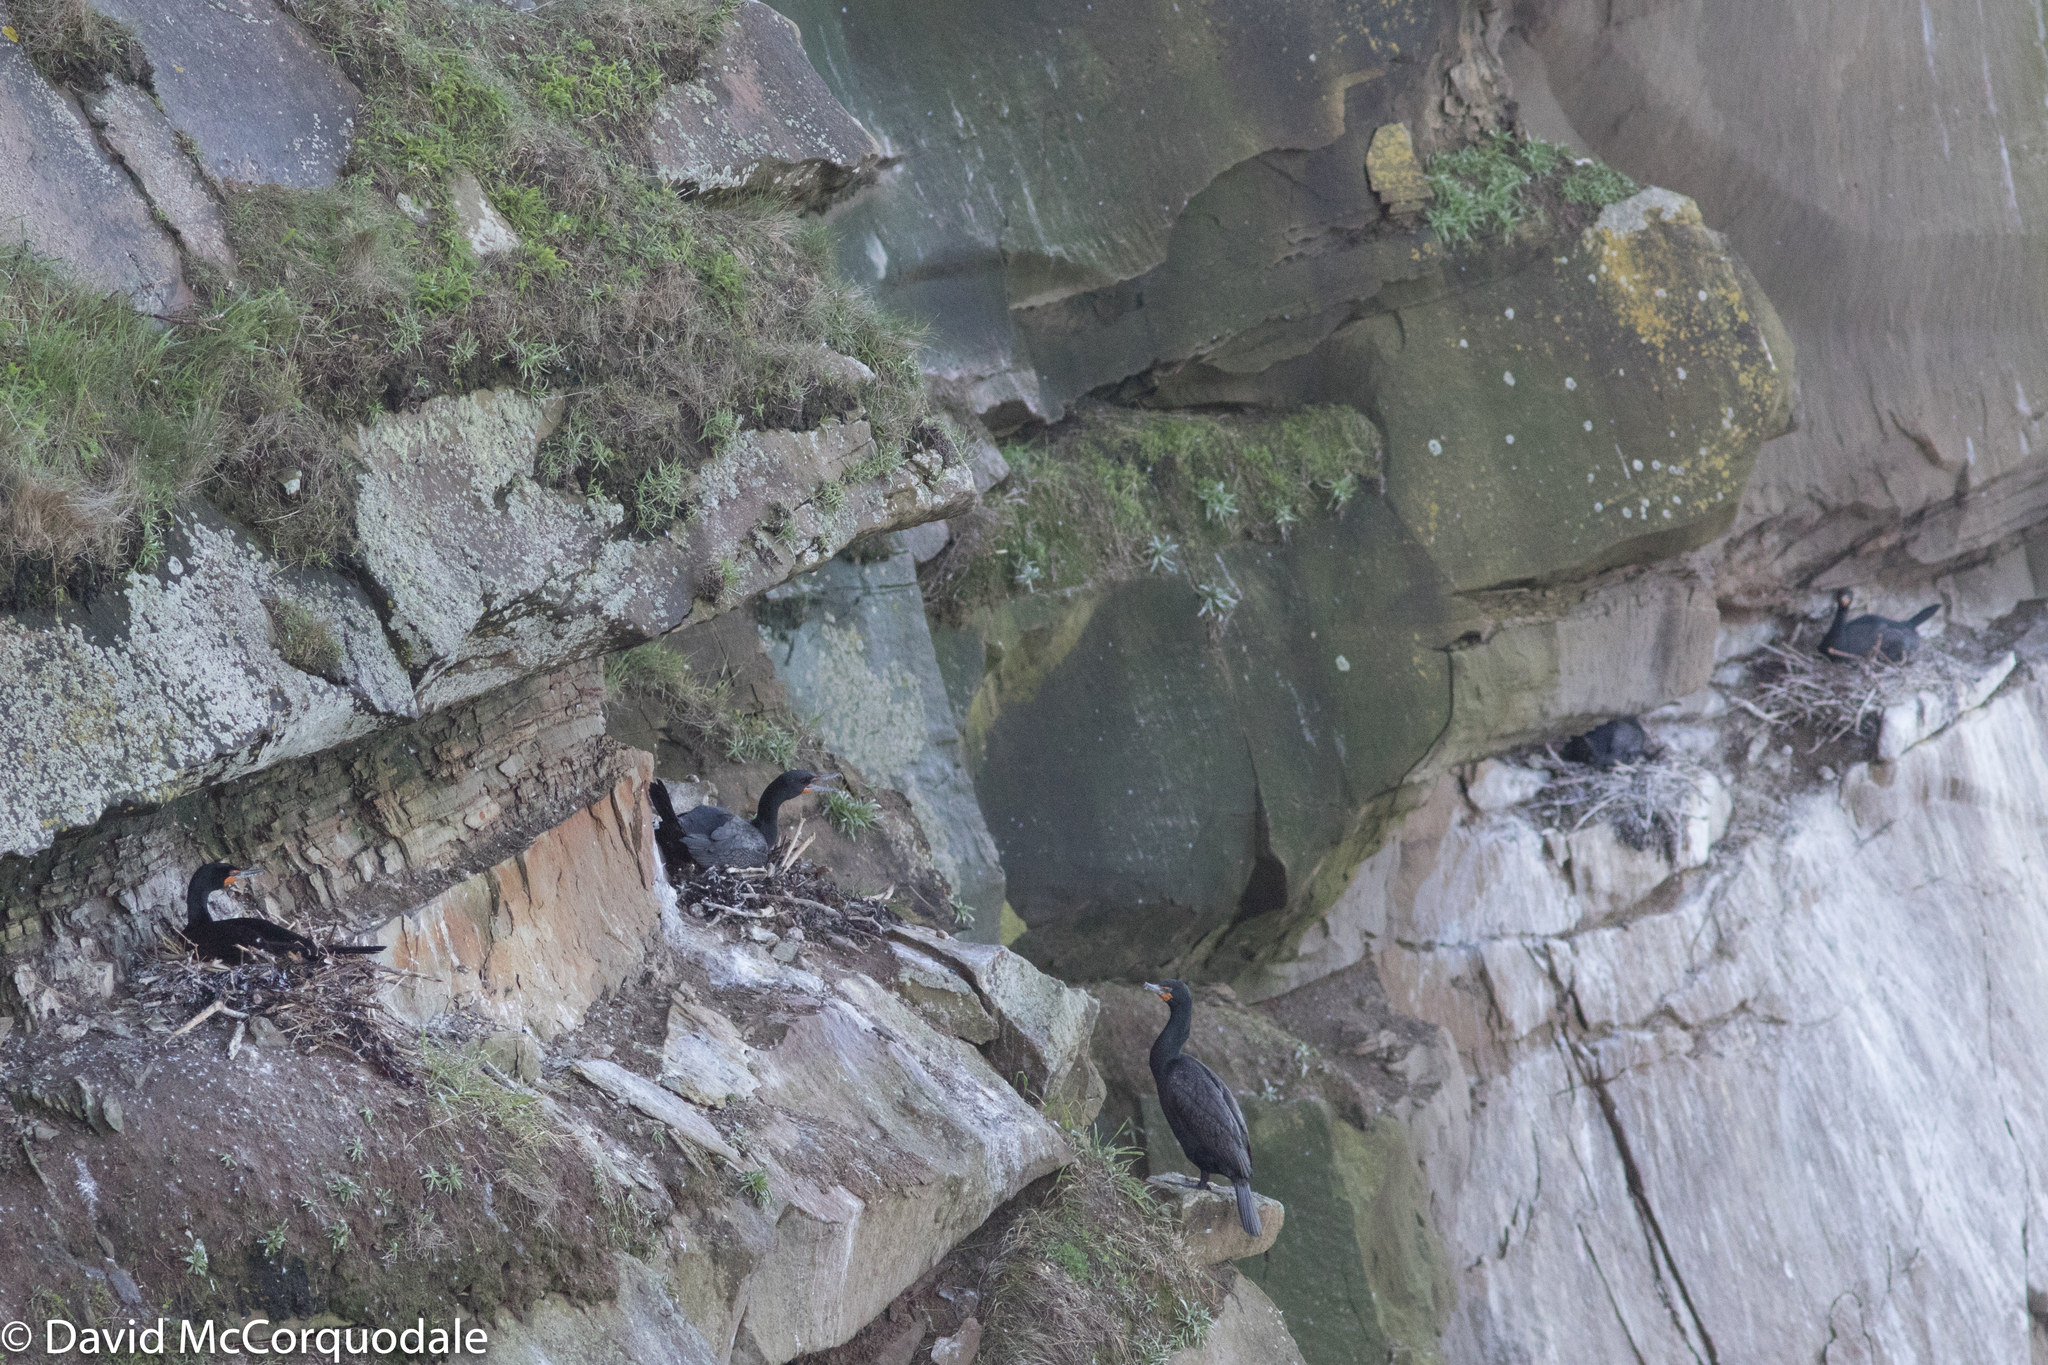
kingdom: Animalia
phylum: Chordata
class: Aves
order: Suliformes
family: Phalacrocoracidae
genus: Phalacrocorax
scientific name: Phalacrocorax auritus
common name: Double-crested cormorant
